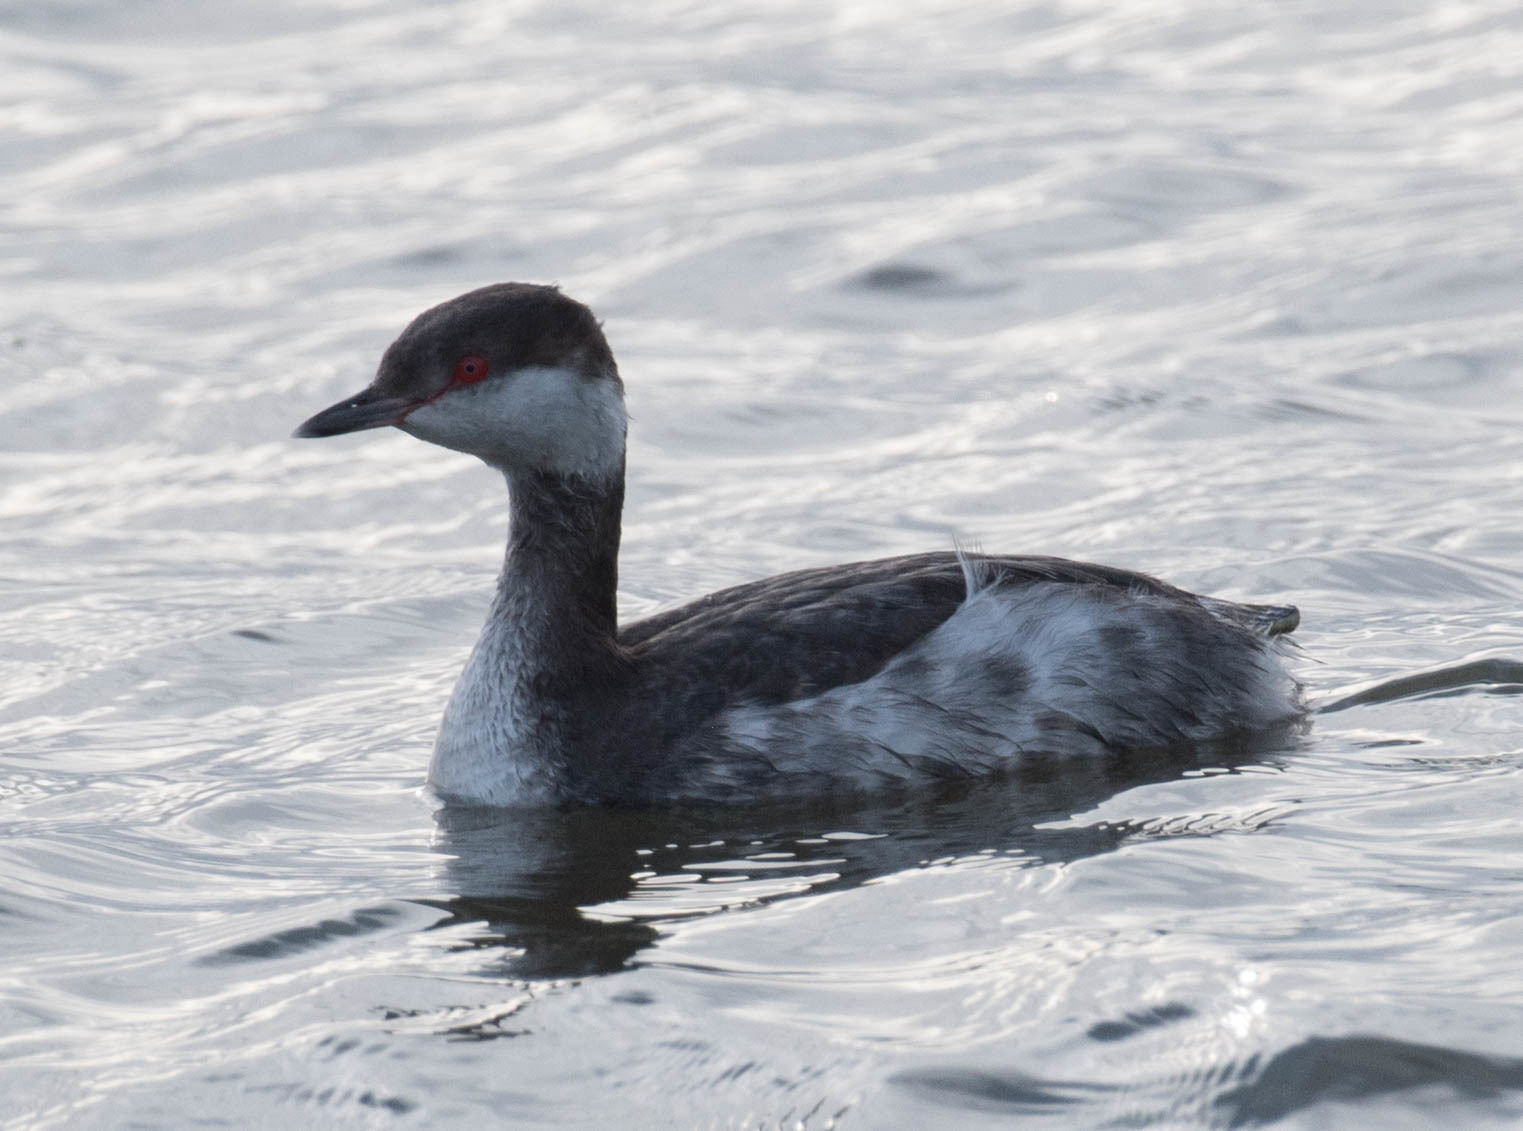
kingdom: Animalia
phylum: Chordata
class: Aves
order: Podicipediformes
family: Podicipedidae
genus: Podiceps
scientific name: Podiceps auritus
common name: Horned grebe
